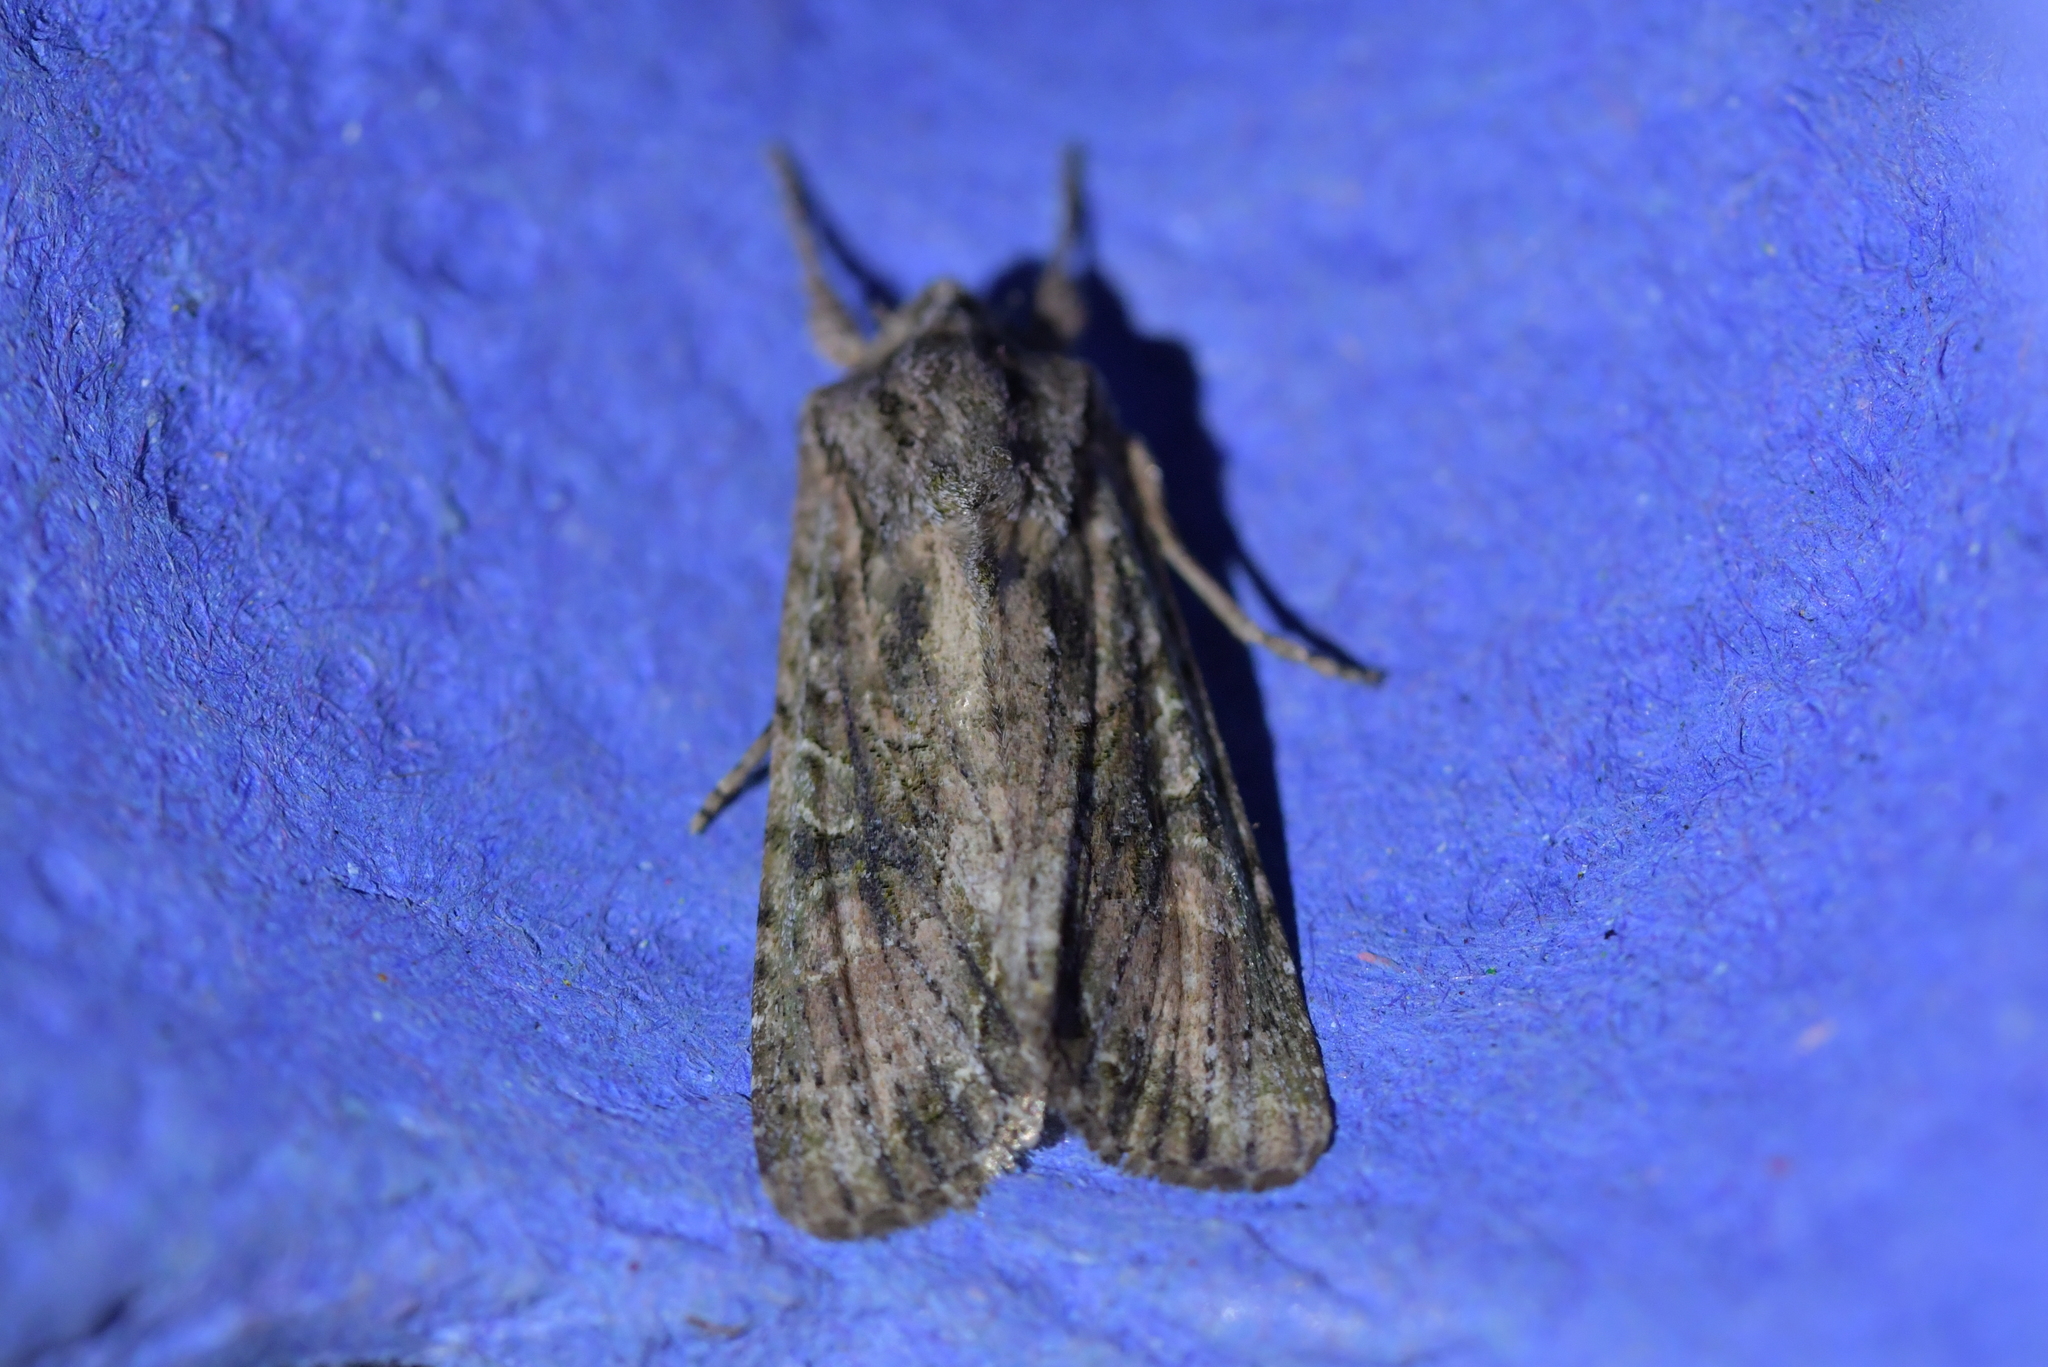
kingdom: Animalia
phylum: Arthropoda
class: Insecta
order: Lepidoptera
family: Noctuidae
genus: Ichneutica
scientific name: Ichneutica mutans
